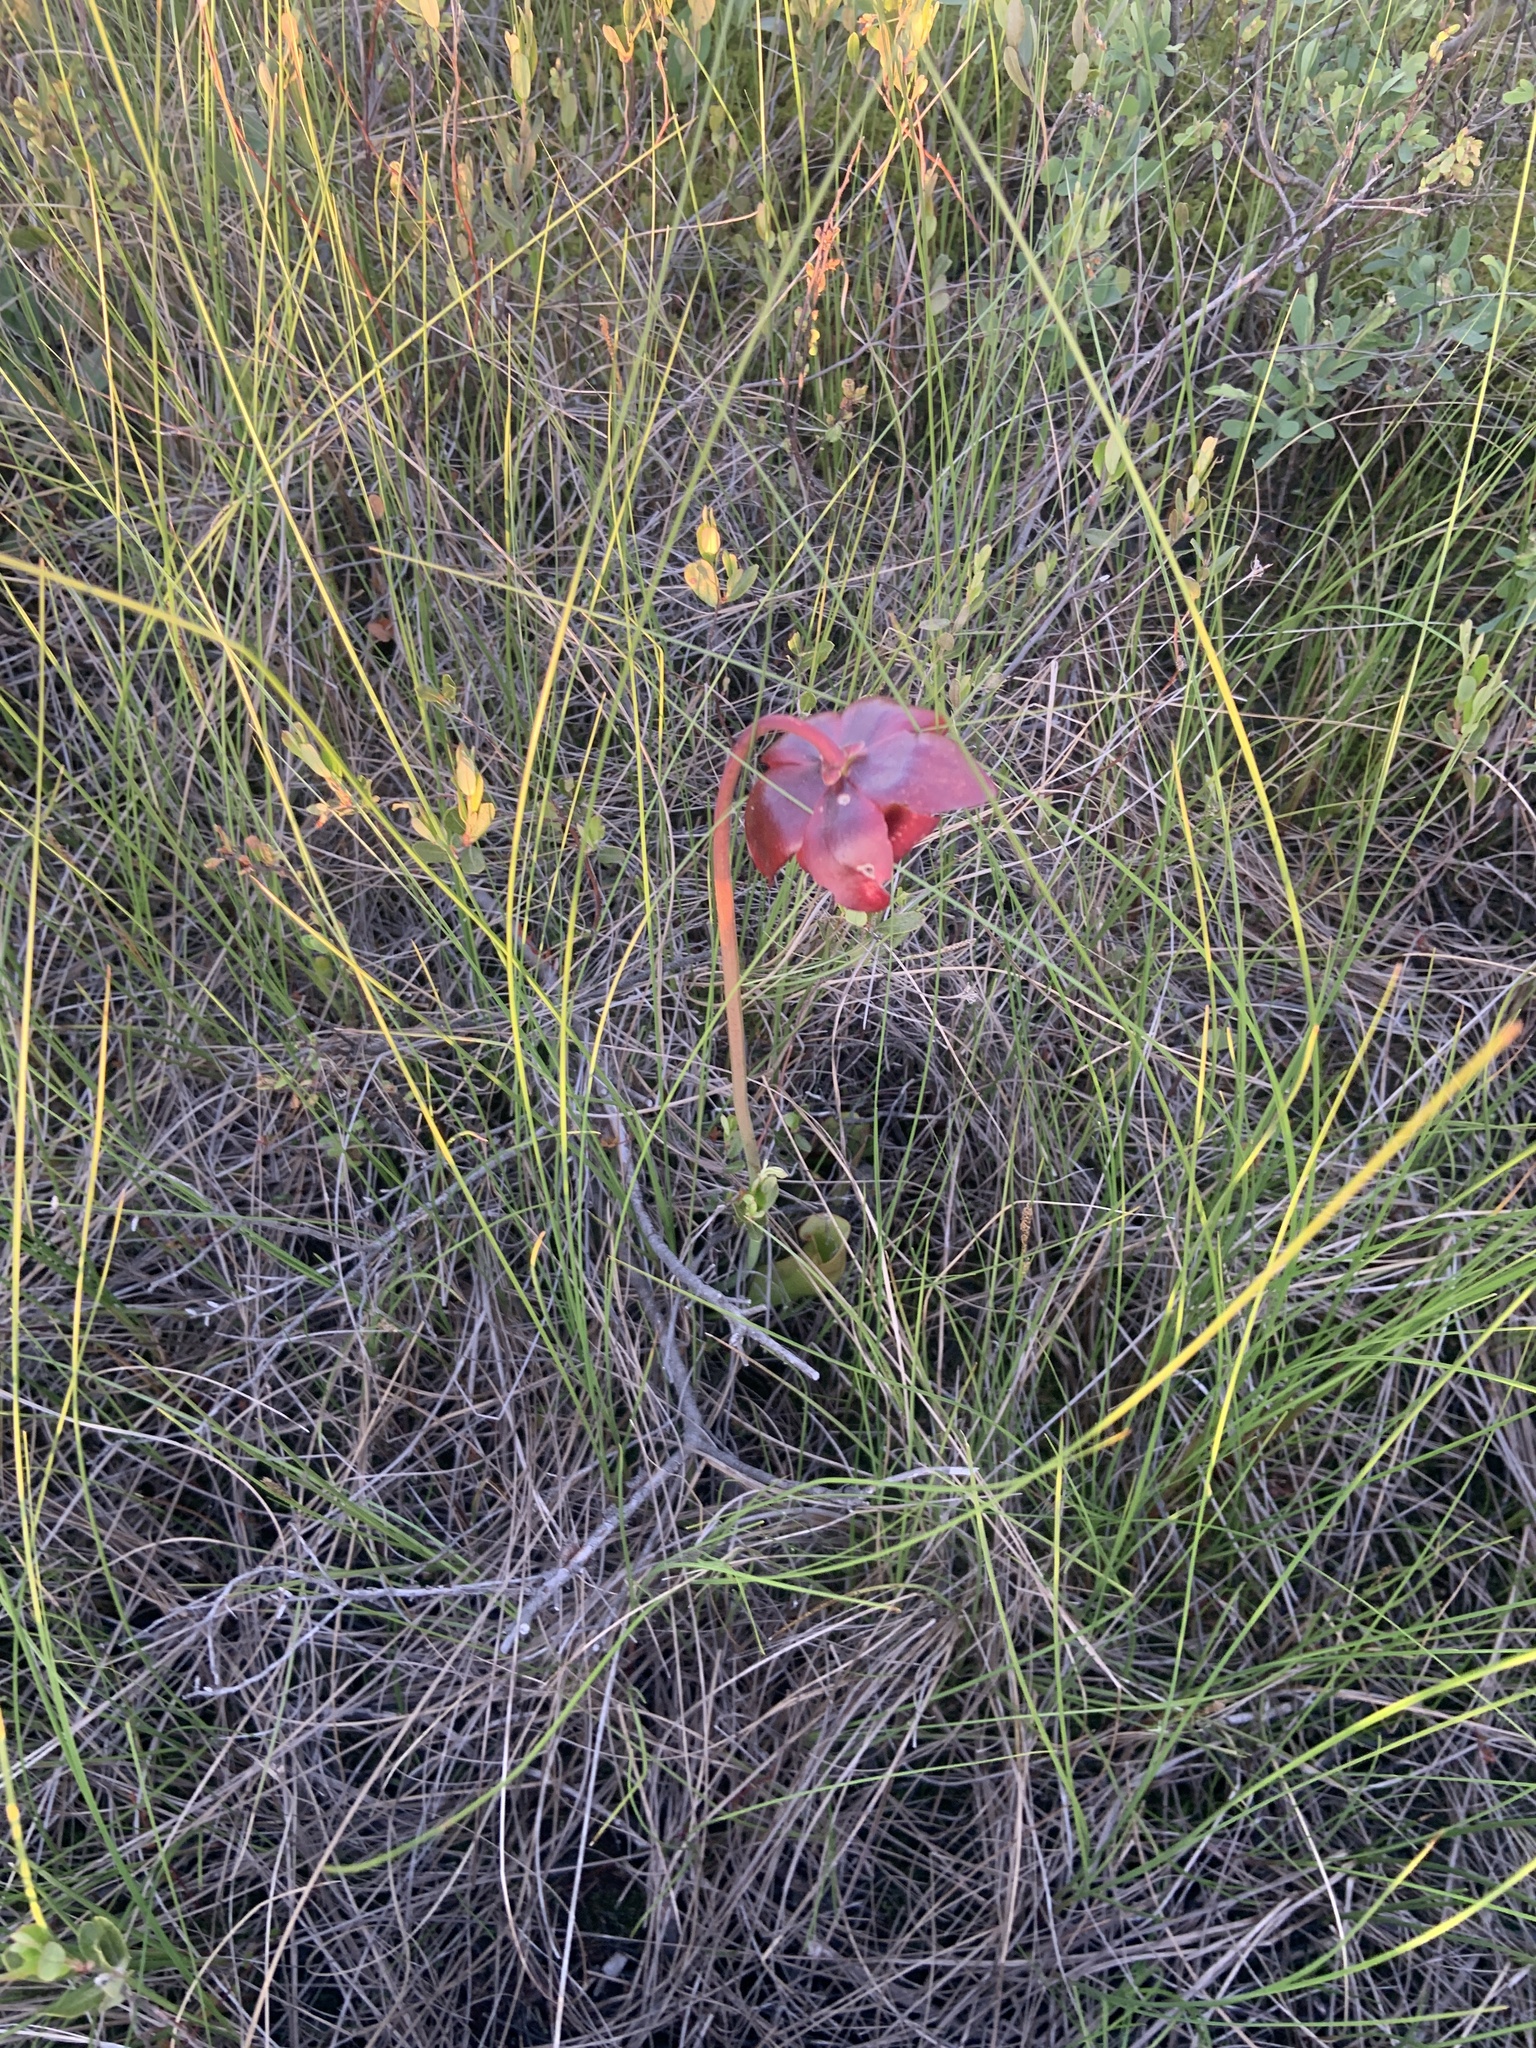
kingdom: Plantae
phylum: Tracheophyta
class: Magnoliopsida
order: Ericales
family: Sarraceniaceae
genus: Sarracenia
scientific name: Sarracenia purpurea
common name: Pitcherplant
